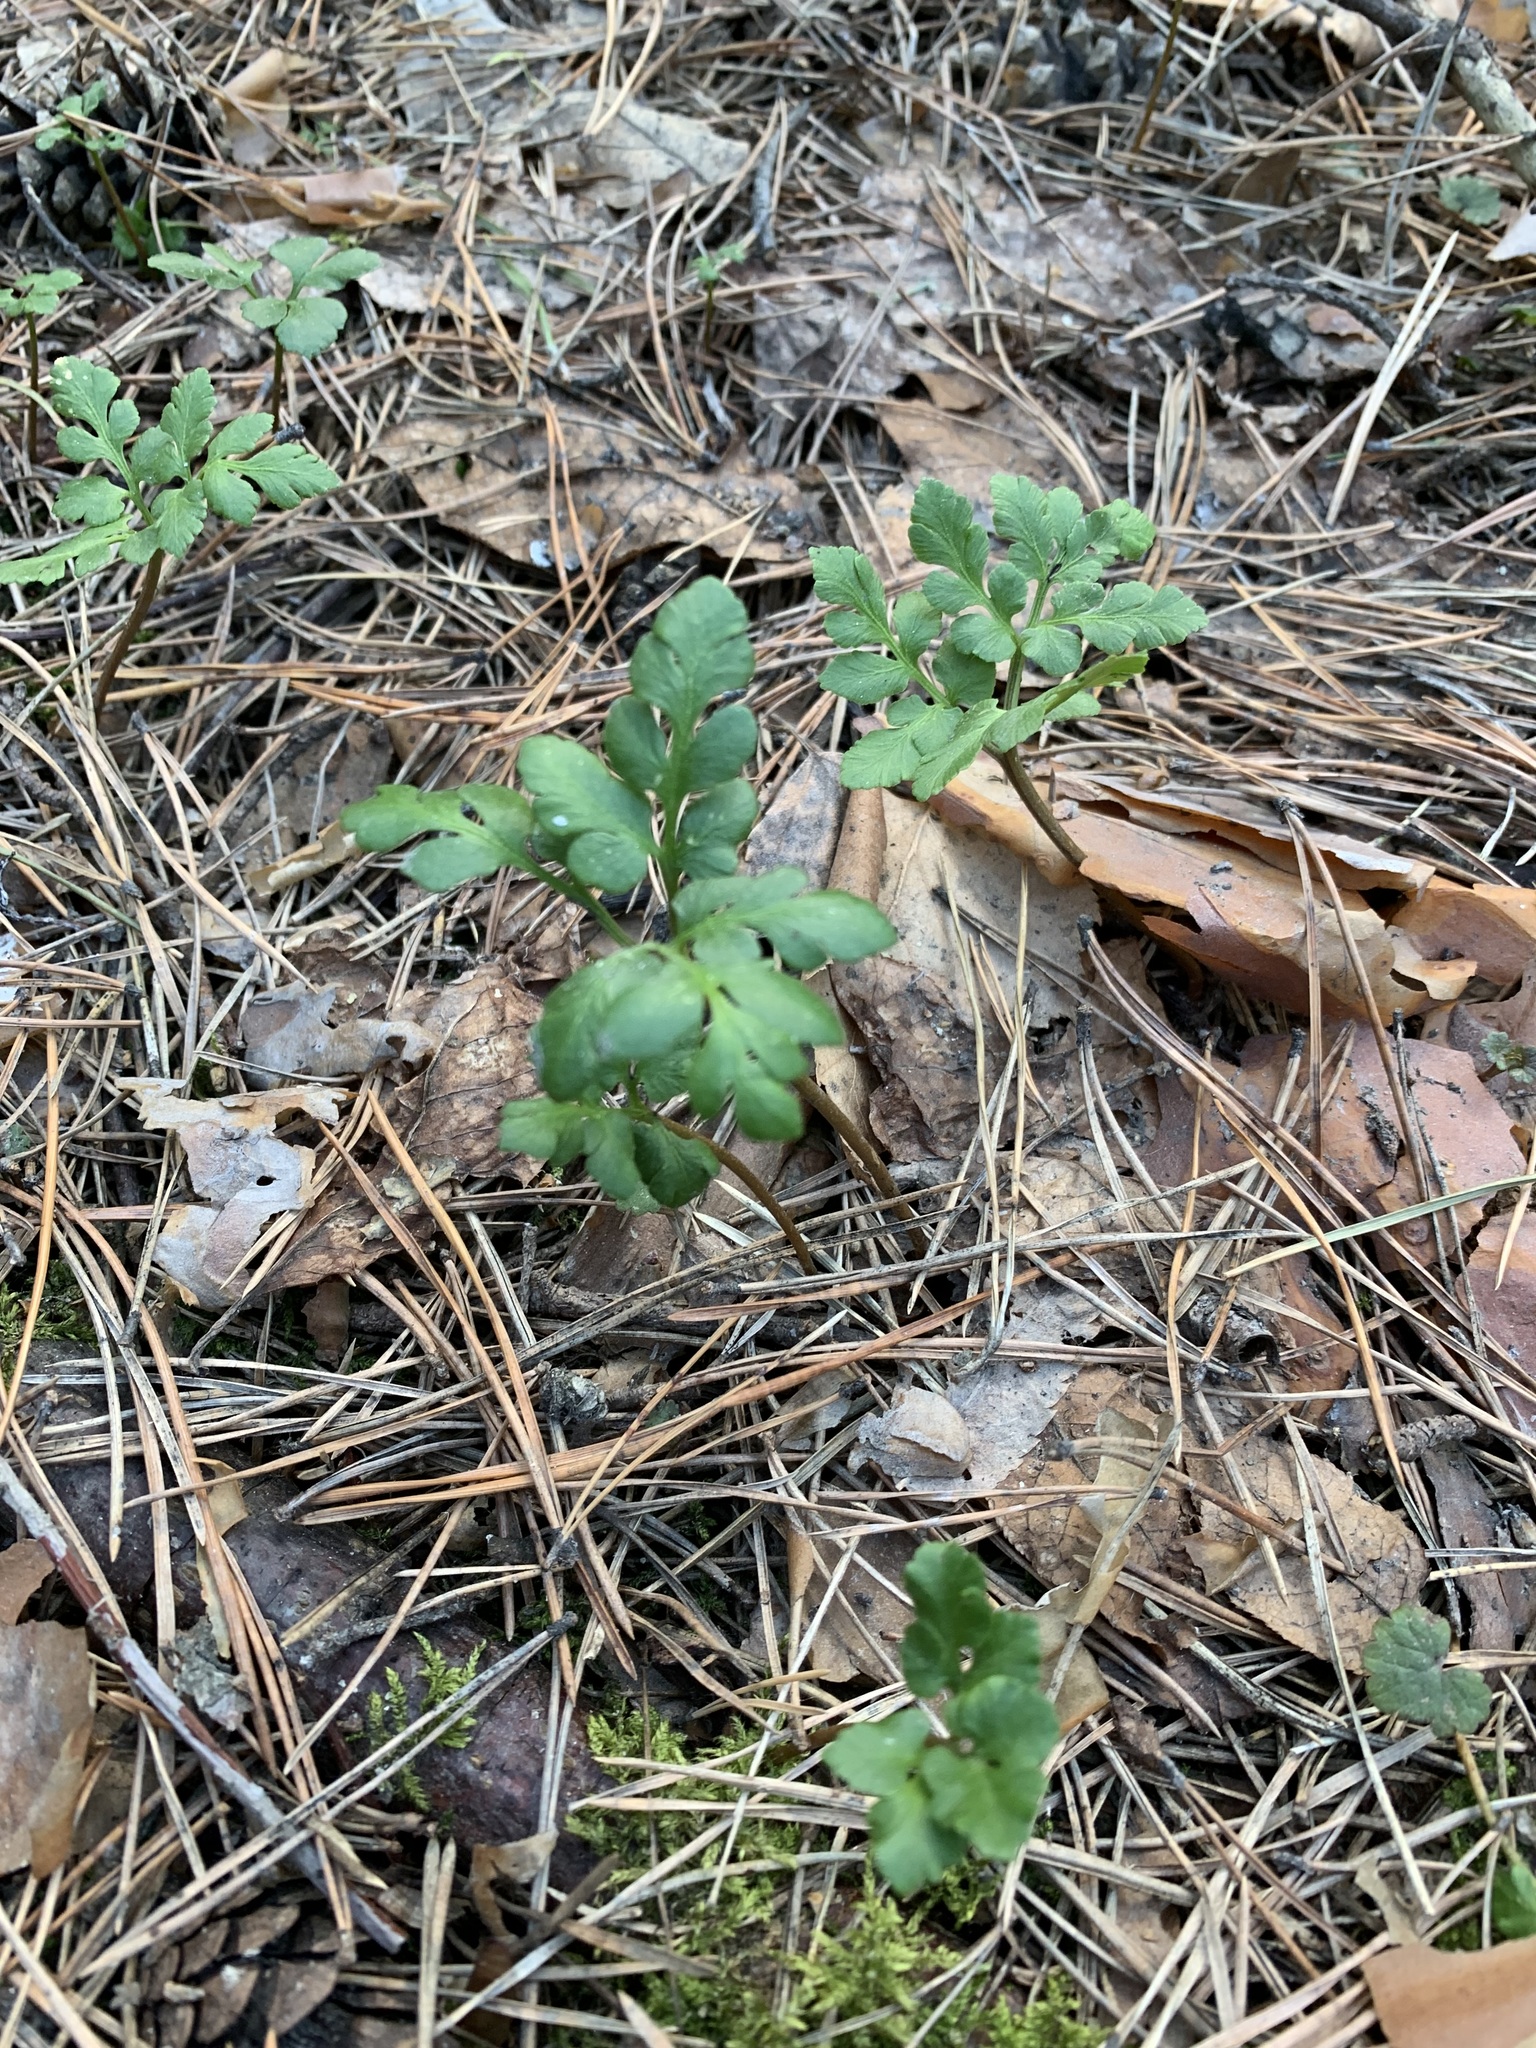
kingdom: Plantae
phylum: Tracheophyta
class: Polypodiopsida
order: Ophioglossales
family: Ophioglossaceae
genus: Sceptridium
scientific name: Sceptridium multifidum
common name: Leathery grape fern
